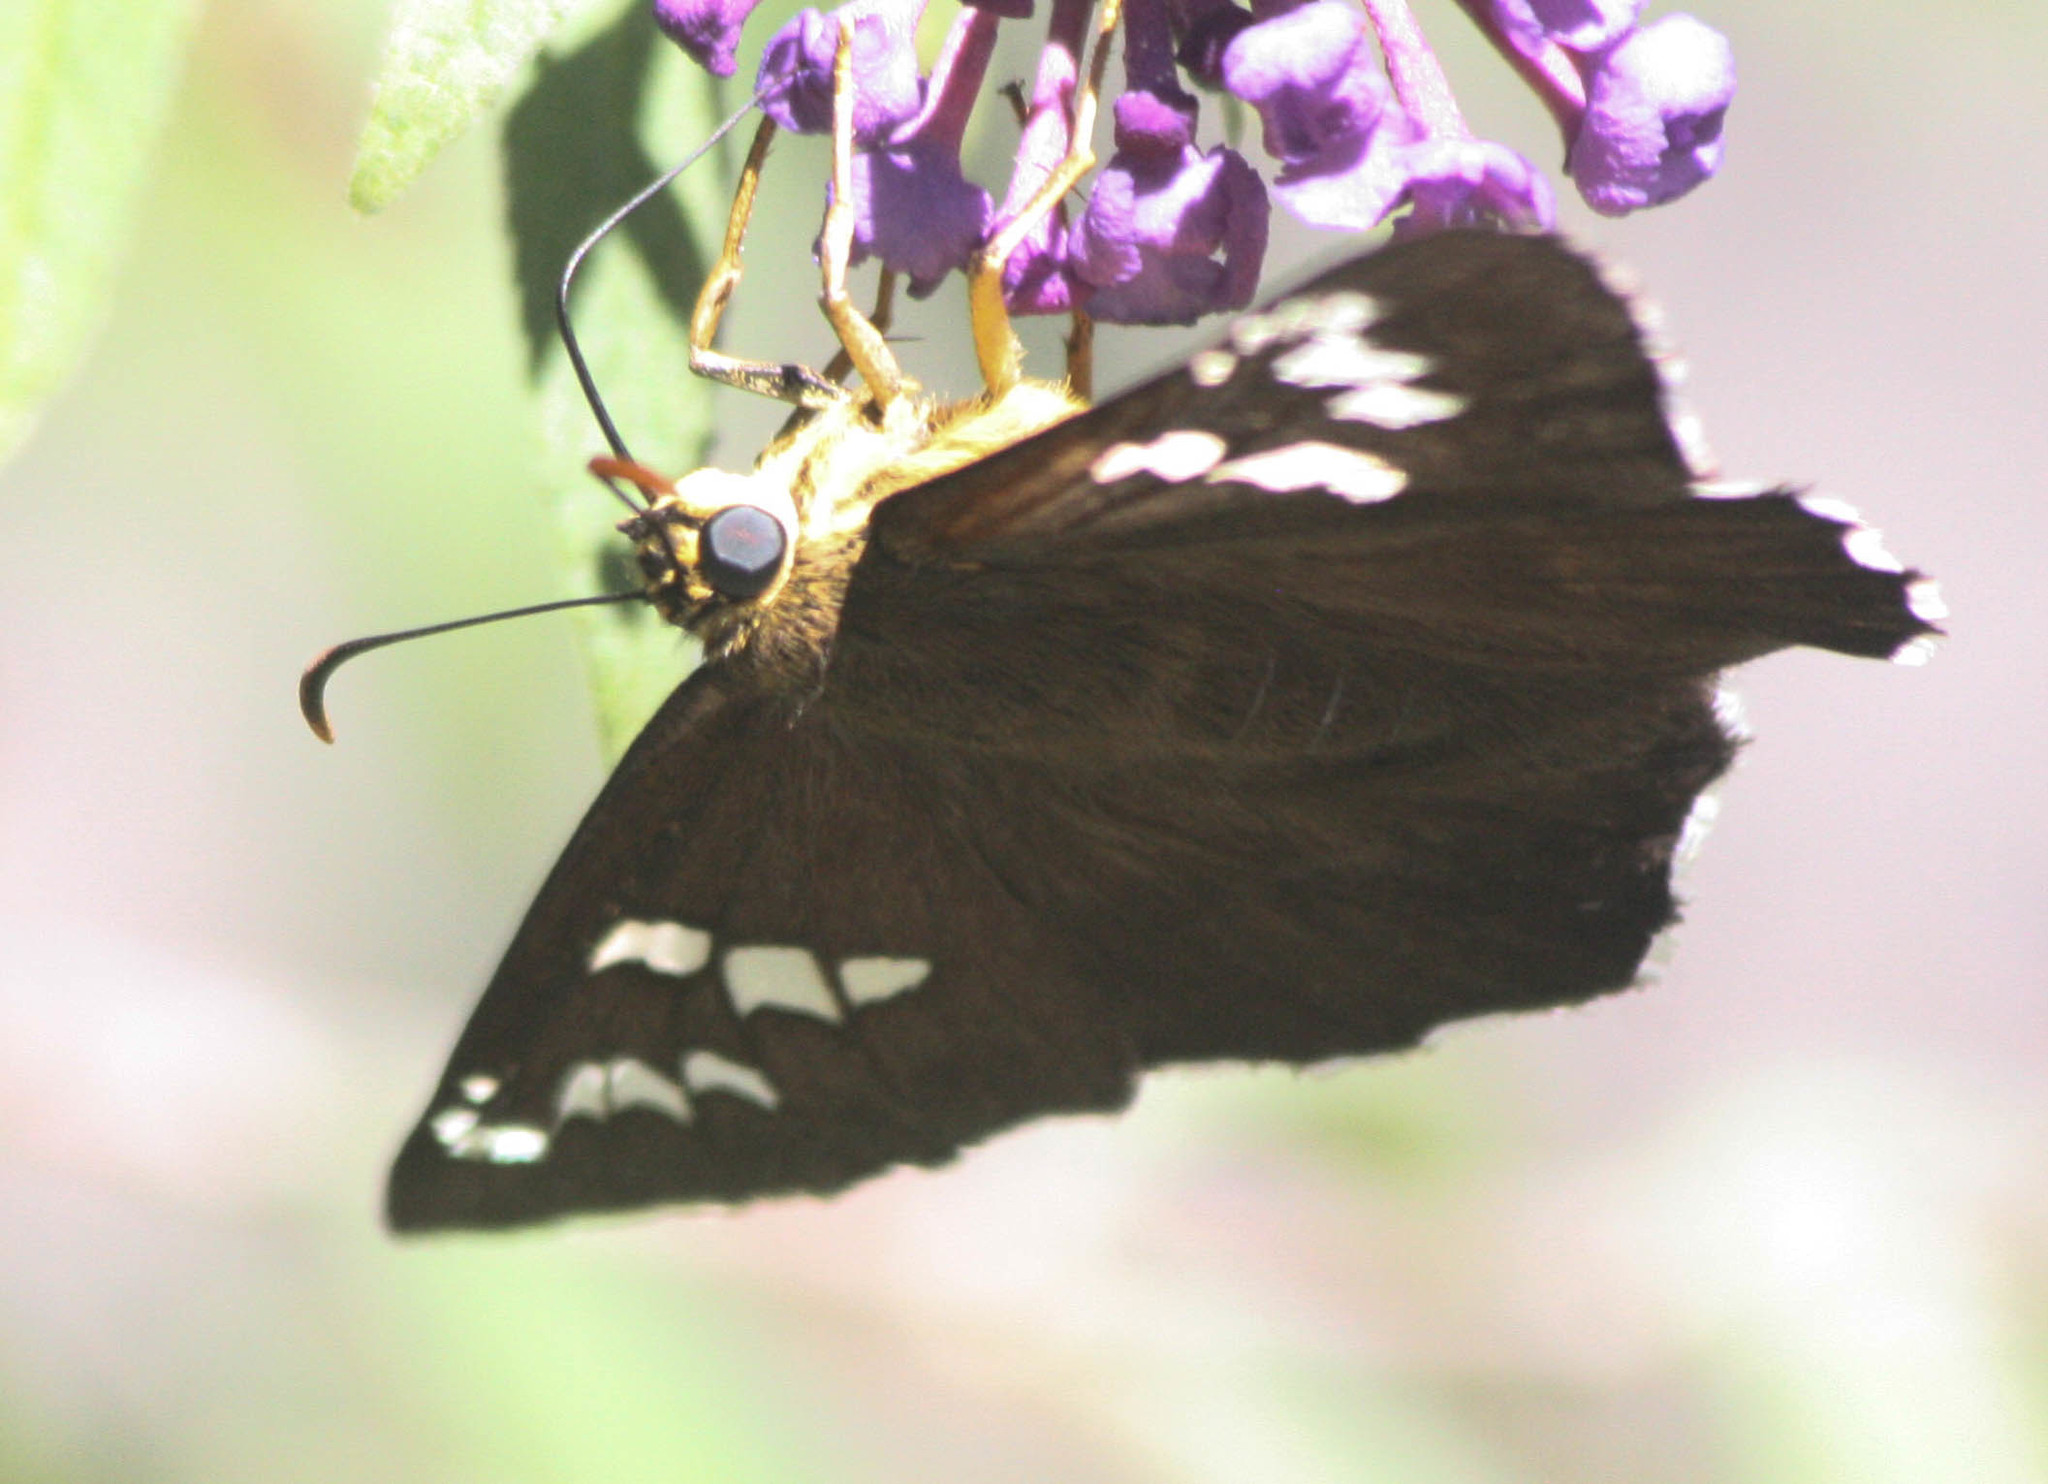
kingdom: Animalia
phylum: Arthropoda
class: Insecta
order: Lepidoptera
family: Hesperiidae
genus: Pyrrhopyge
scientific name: Pyrrhopyge araxes
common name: Dull firetip
